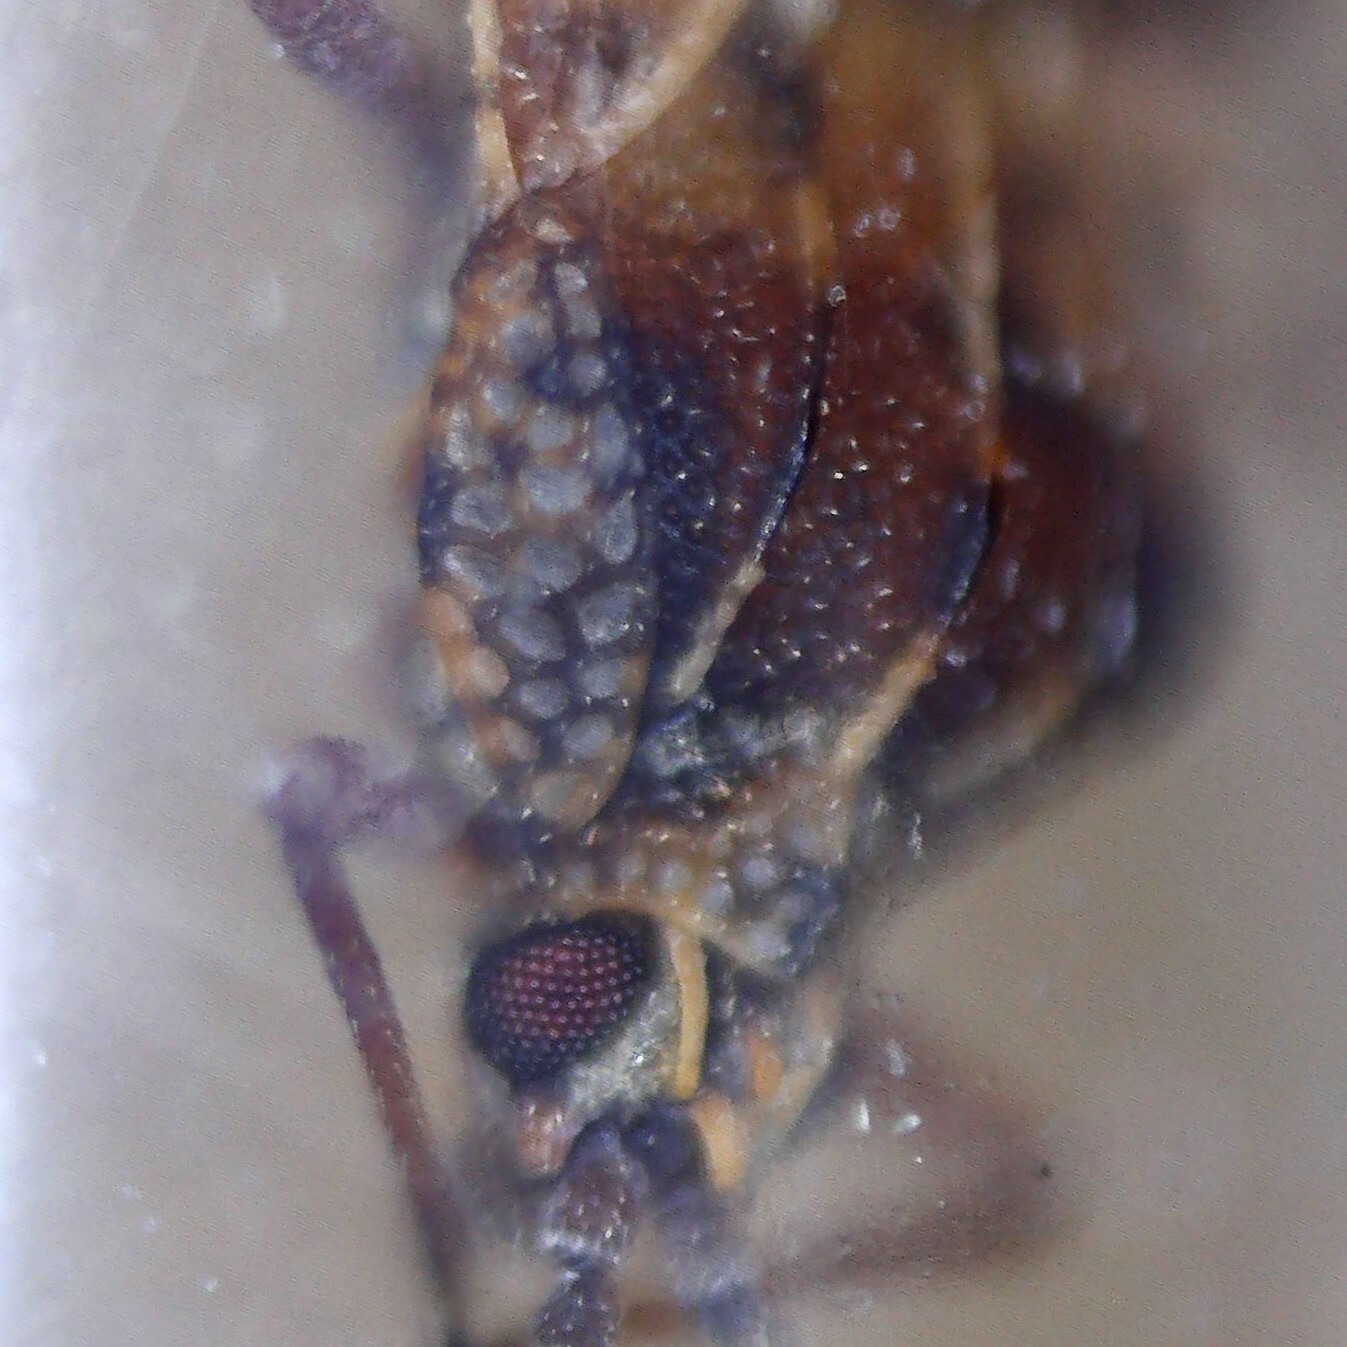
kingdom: Animalia
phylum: Arthropoda
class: Insecta
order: Hemiptera
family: Tingidae
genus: Physatocheila
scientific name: Physatocheila dumetorum
